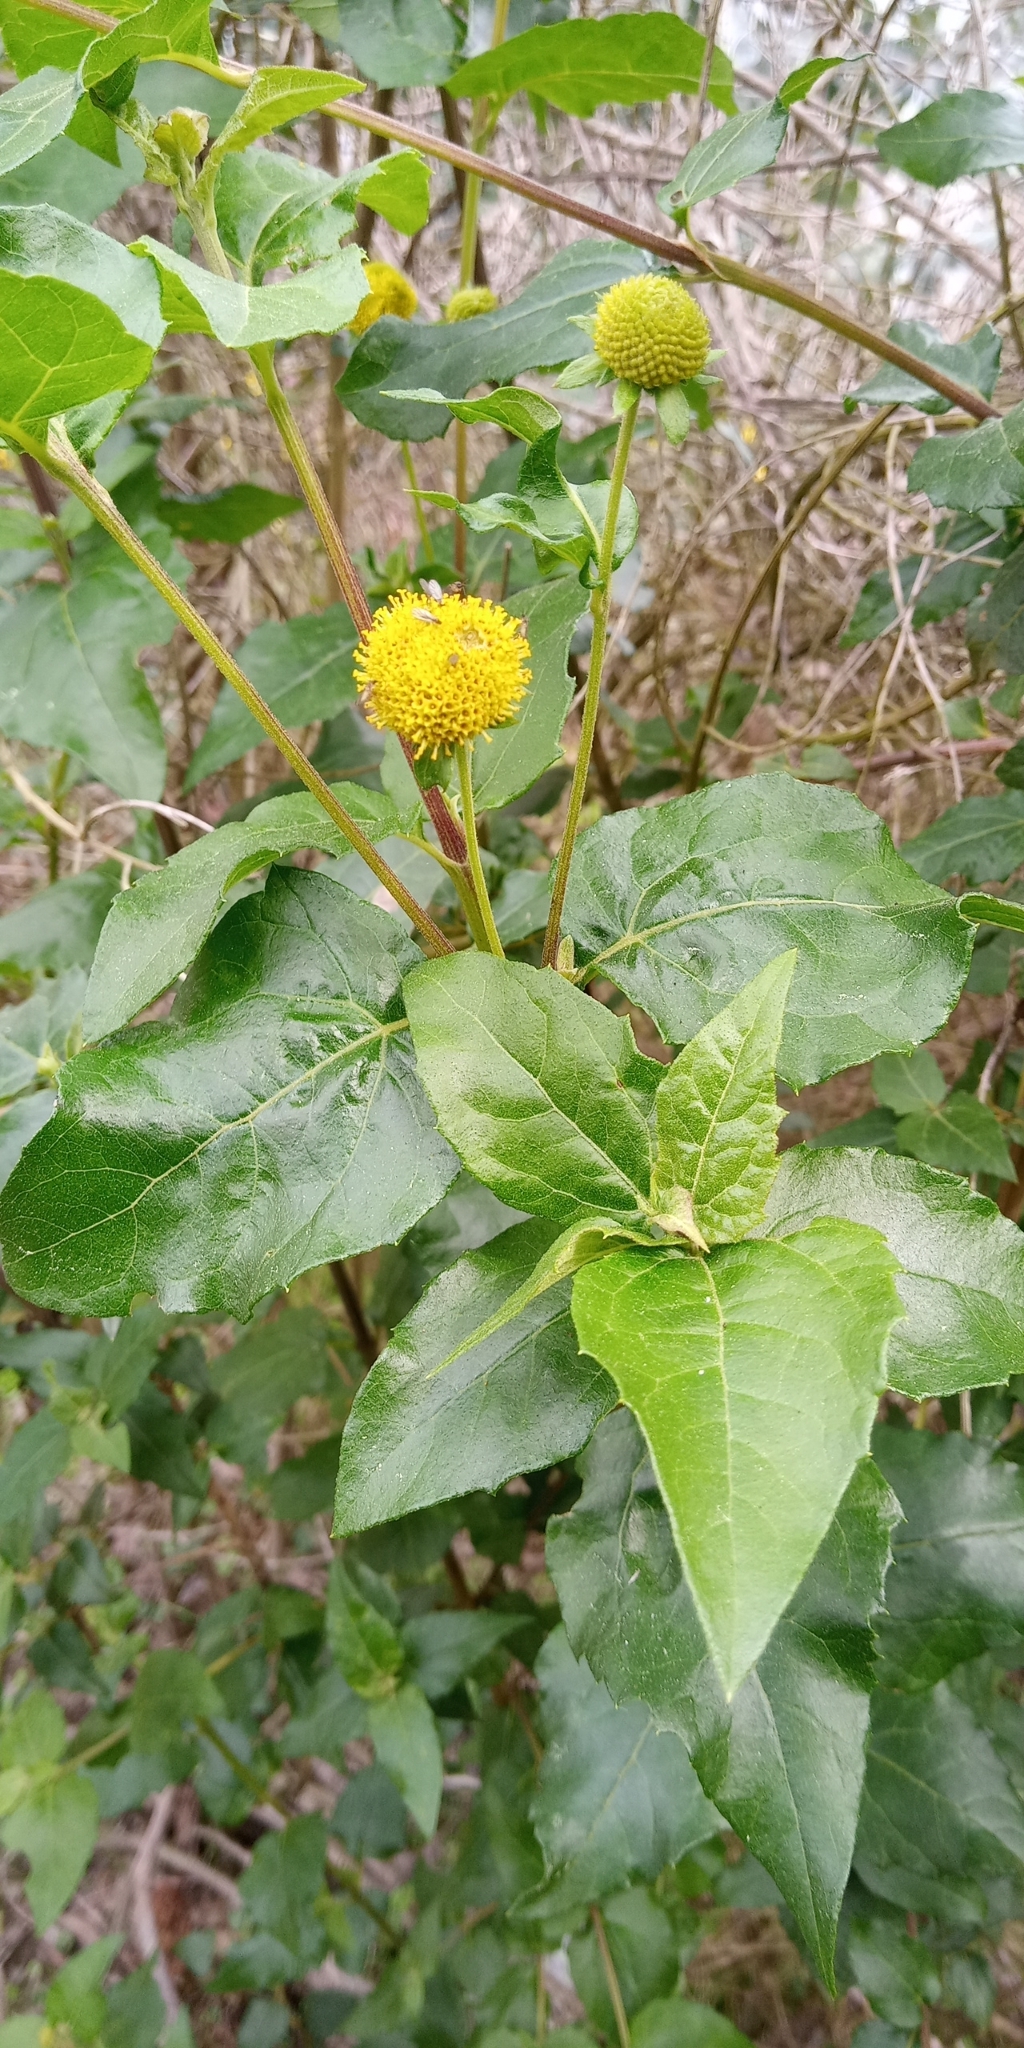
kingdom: Plantae
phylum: Tracheophyta
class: Magnoliopsida
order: Asterales
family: Asteraceae
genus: Podanthus
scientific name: Podanthus ovatifolius
